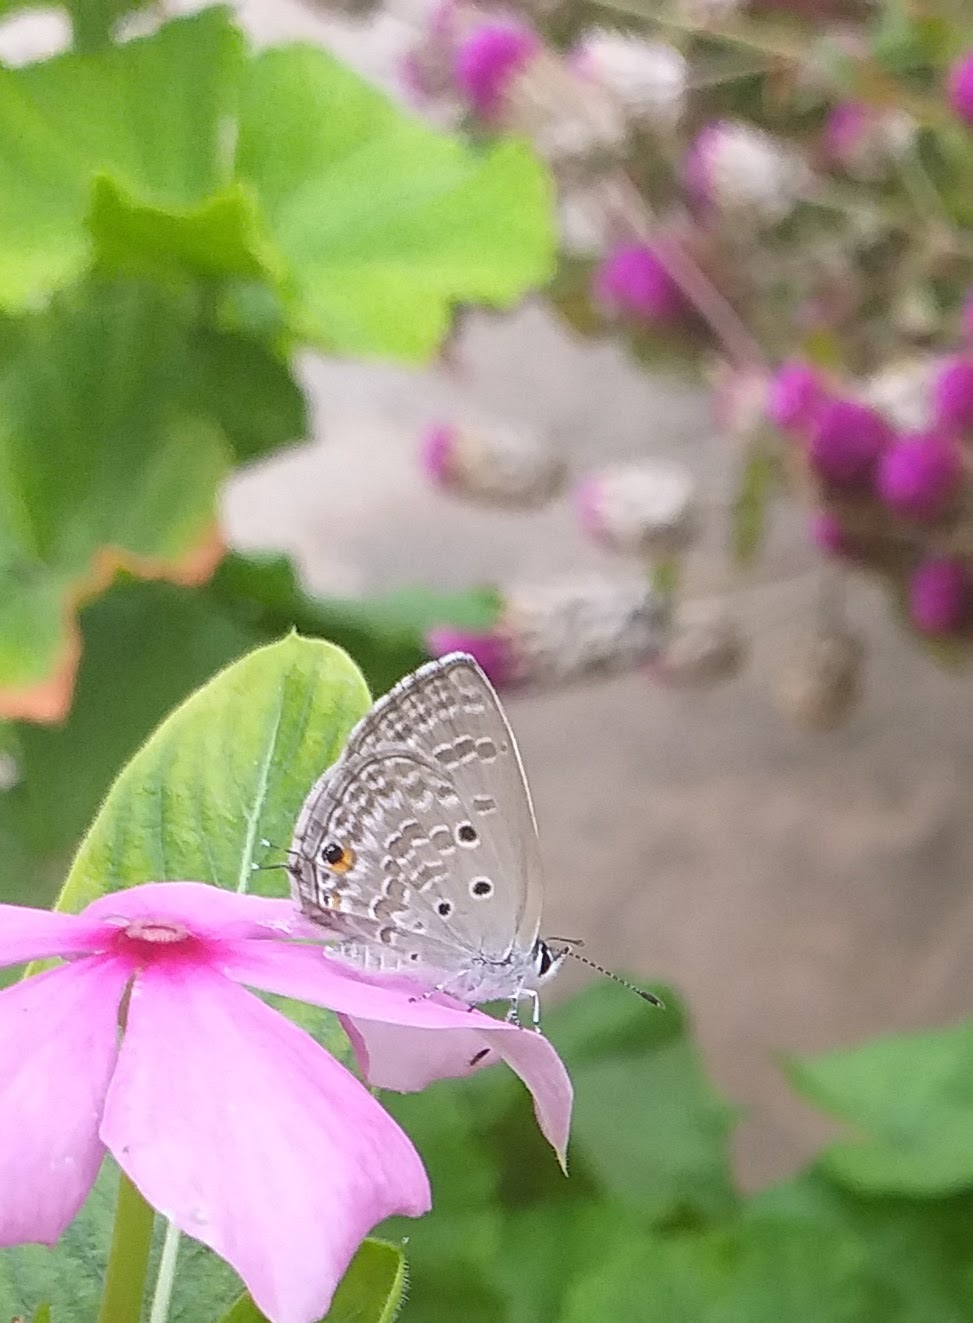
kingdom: Animalia
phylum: Arthropoda
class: Insecta
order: Lepidoptera
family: Lycaenidae
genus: Luthrodes
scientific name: Luthrodes pandava
